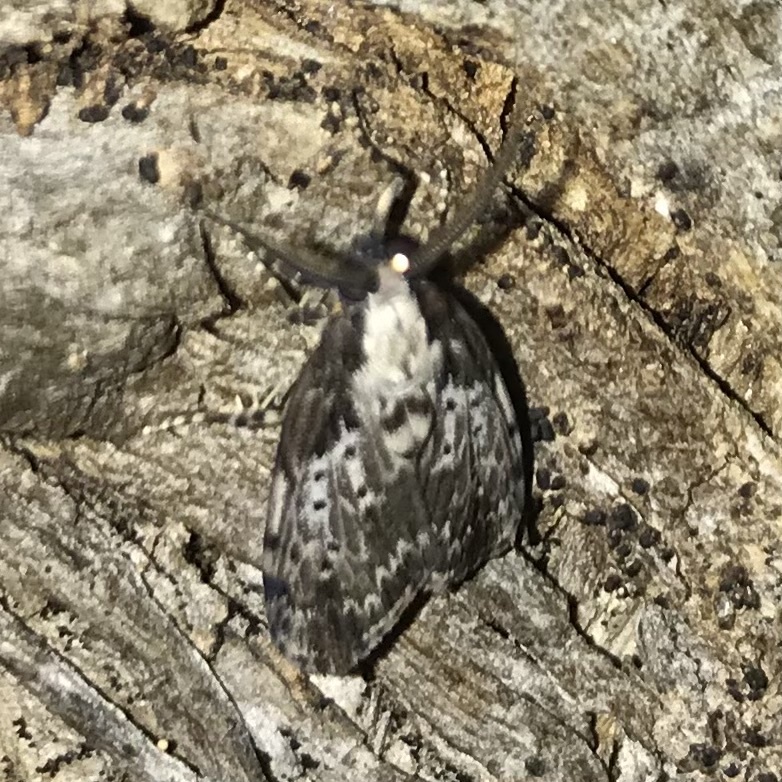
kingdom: Animalia
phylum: Arthropoda
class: Insecta
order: Lepidoptera
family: Erebidae
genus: Digama
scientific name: Digama Sommeria marmorea
